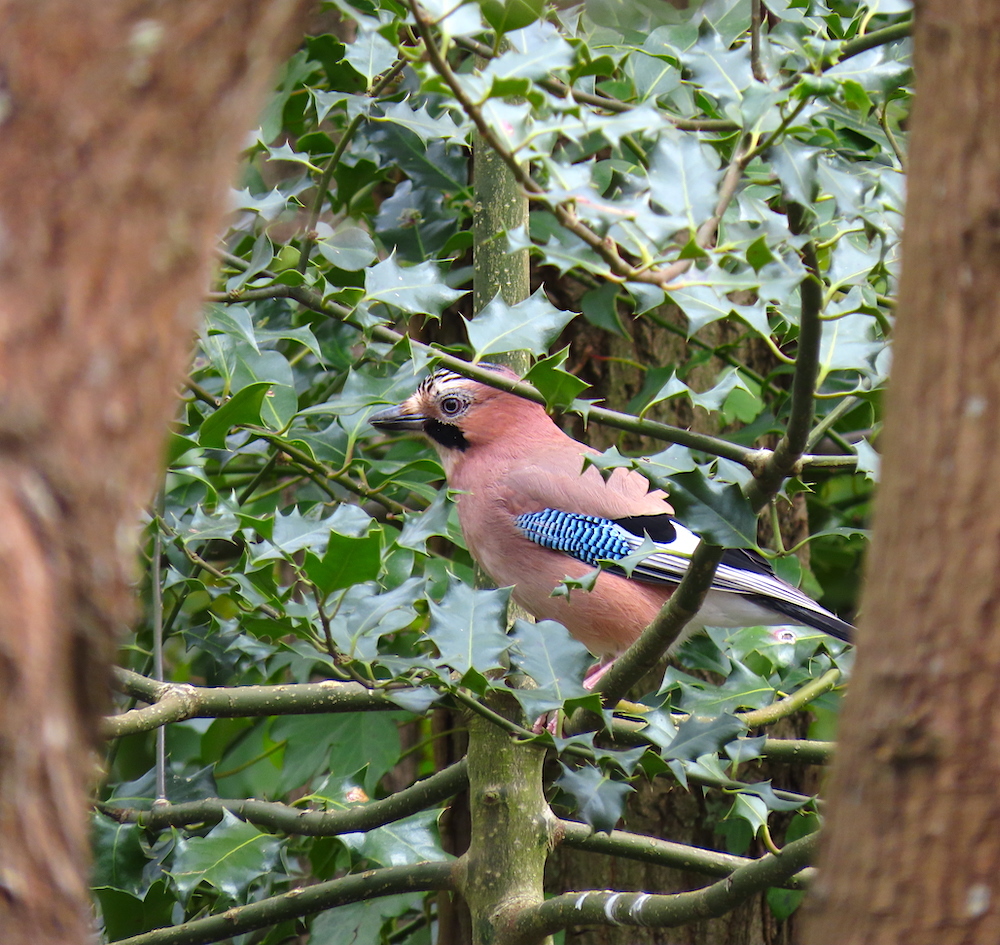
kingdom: Animalia
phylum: Chordata
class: Aves
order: Passeriformes
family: Corvidae
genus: Garrulus
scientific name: Garrulus glandarius
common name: Eurasian jay
